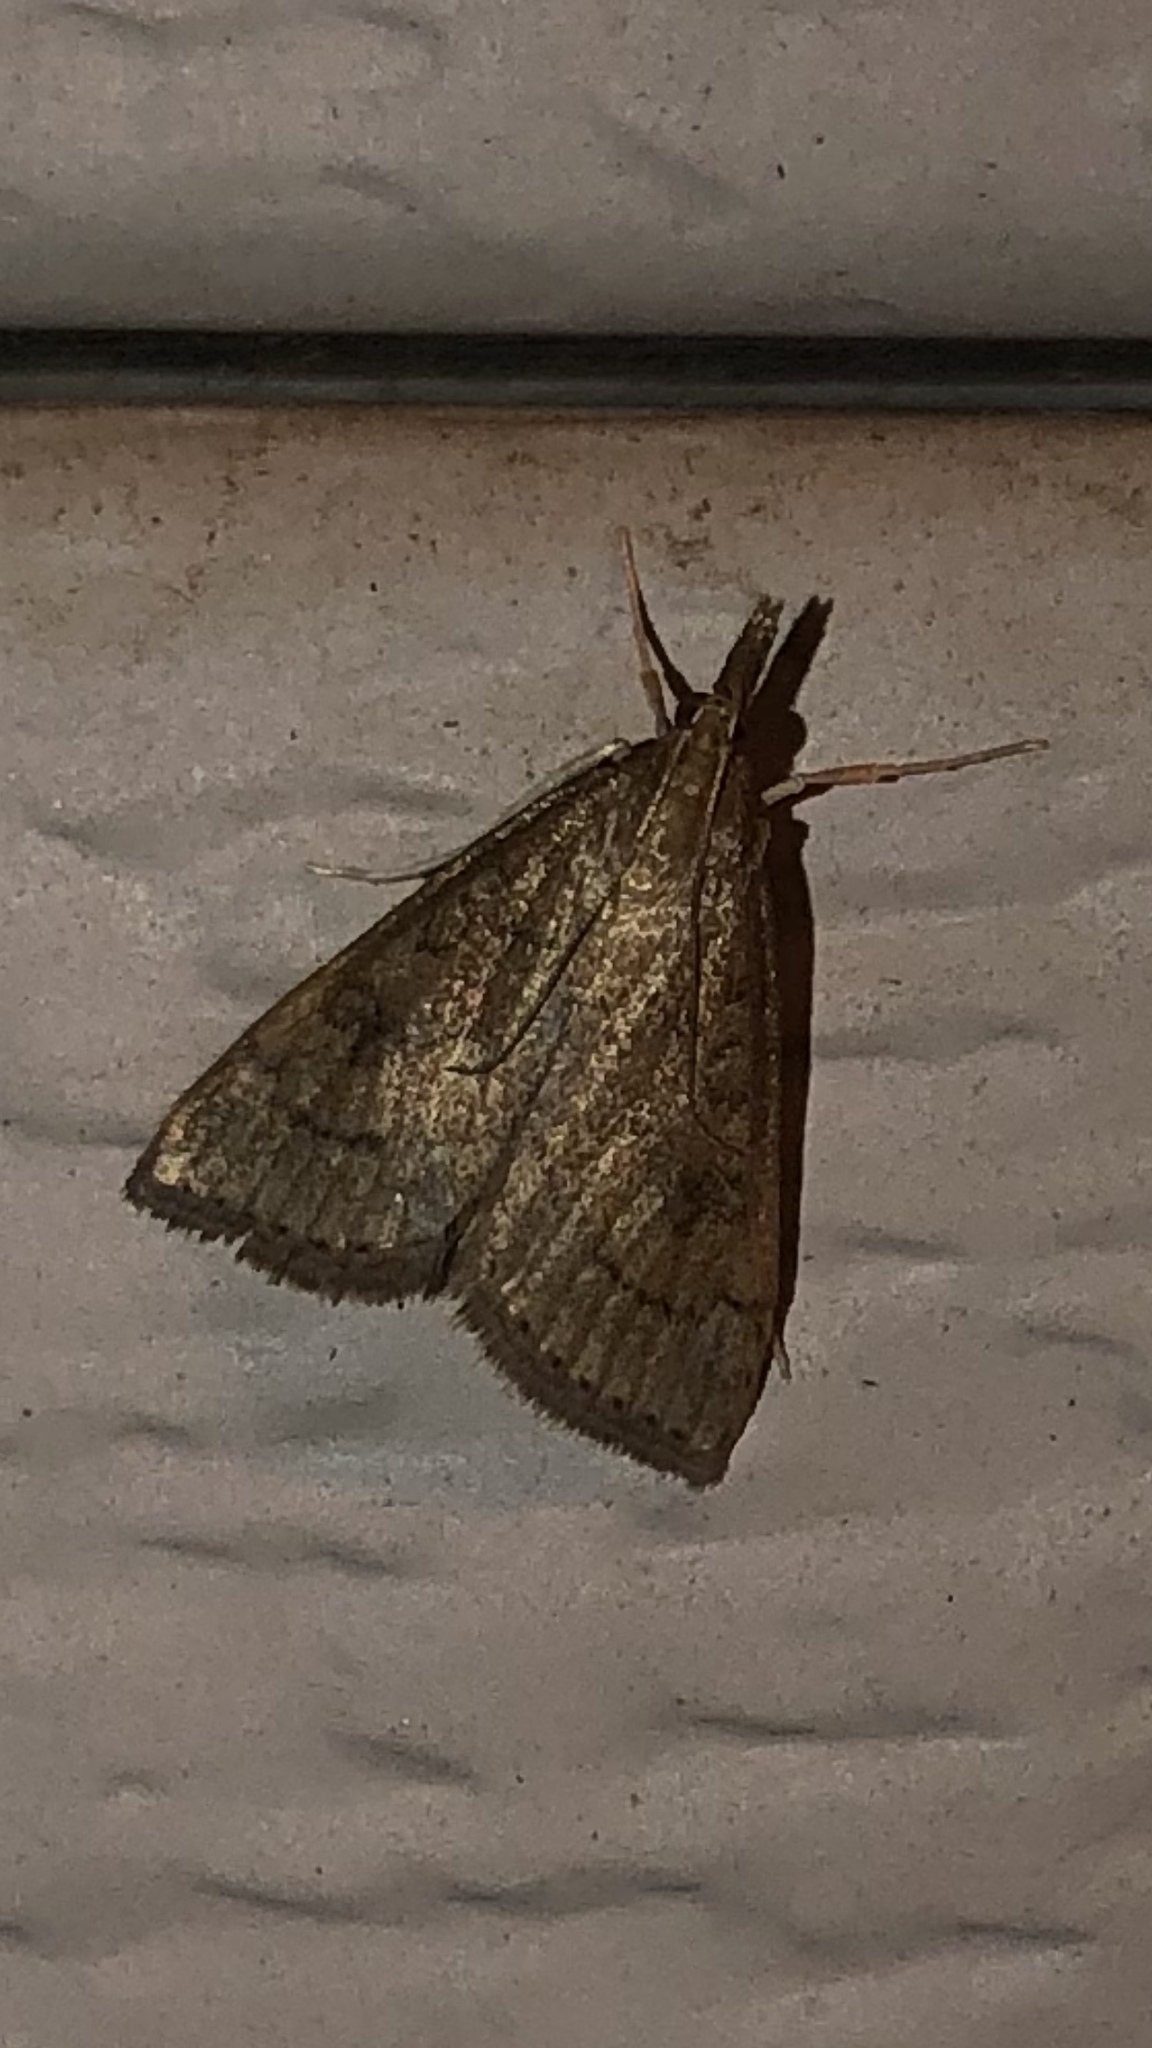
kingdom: Animalia
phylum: Arthropoda
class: Insecta
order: Lepidoptera
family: Crambidae
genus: Udea
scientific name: Udea rubigalis
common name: Celery leaftier moth
